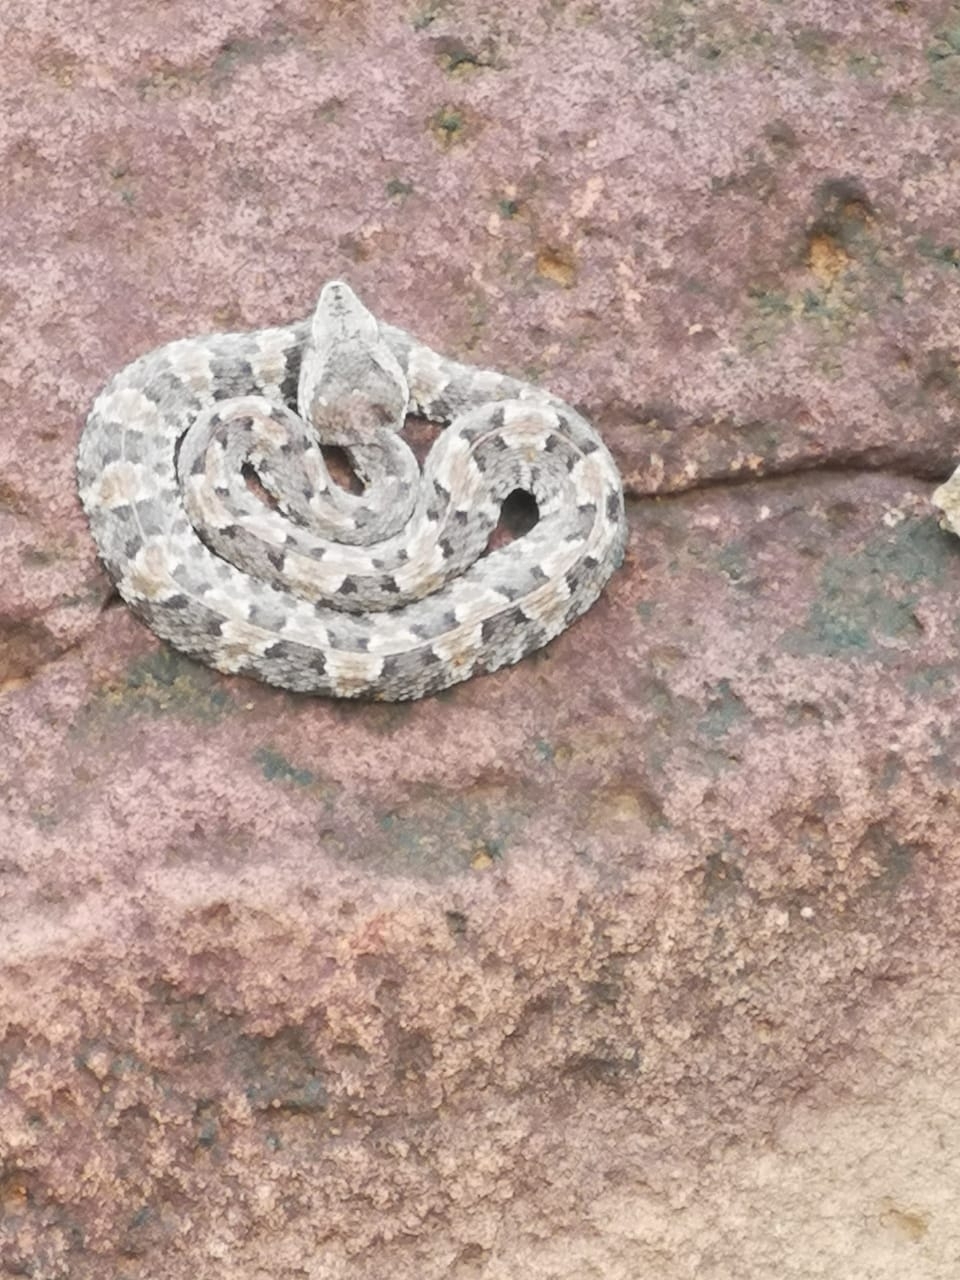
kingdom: Animalia
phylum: Chordata
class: Squamata
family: Viperidae
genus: Porthidium
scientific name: Porthidium lansbergii
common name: Lansberg's hognosed pit viper
